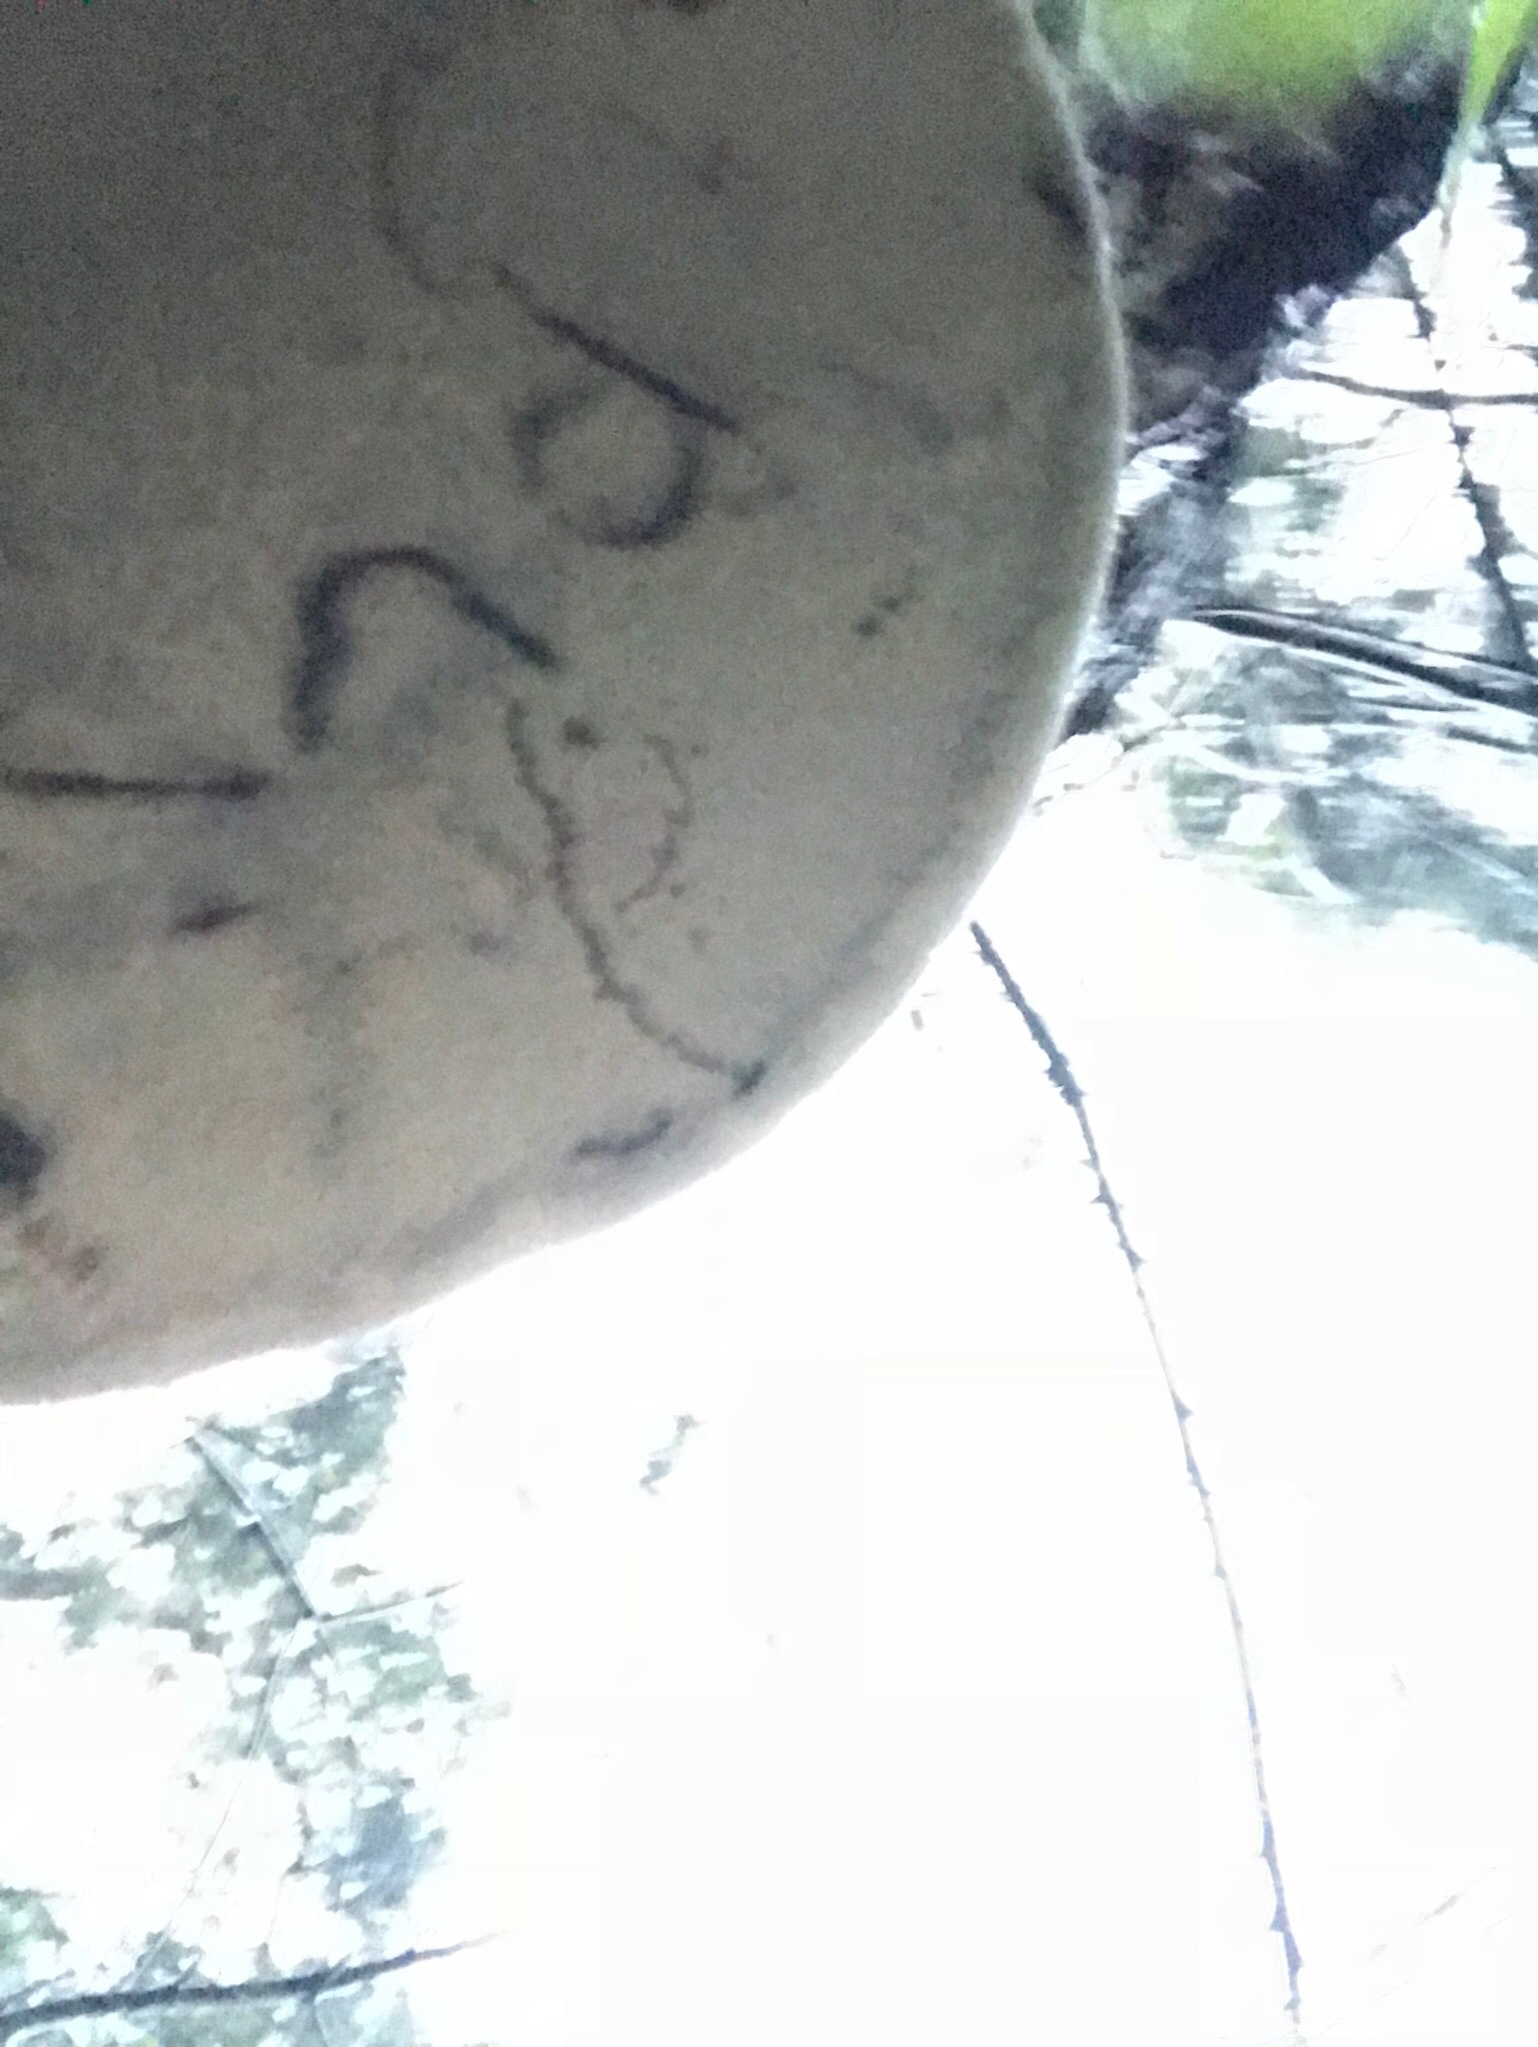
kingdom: Fungi
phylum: Basidiomycota
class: Agaricomycetes
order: Polyporales
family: Polyporaceae
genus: Ganoderma
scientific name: Ganoderma brownii
